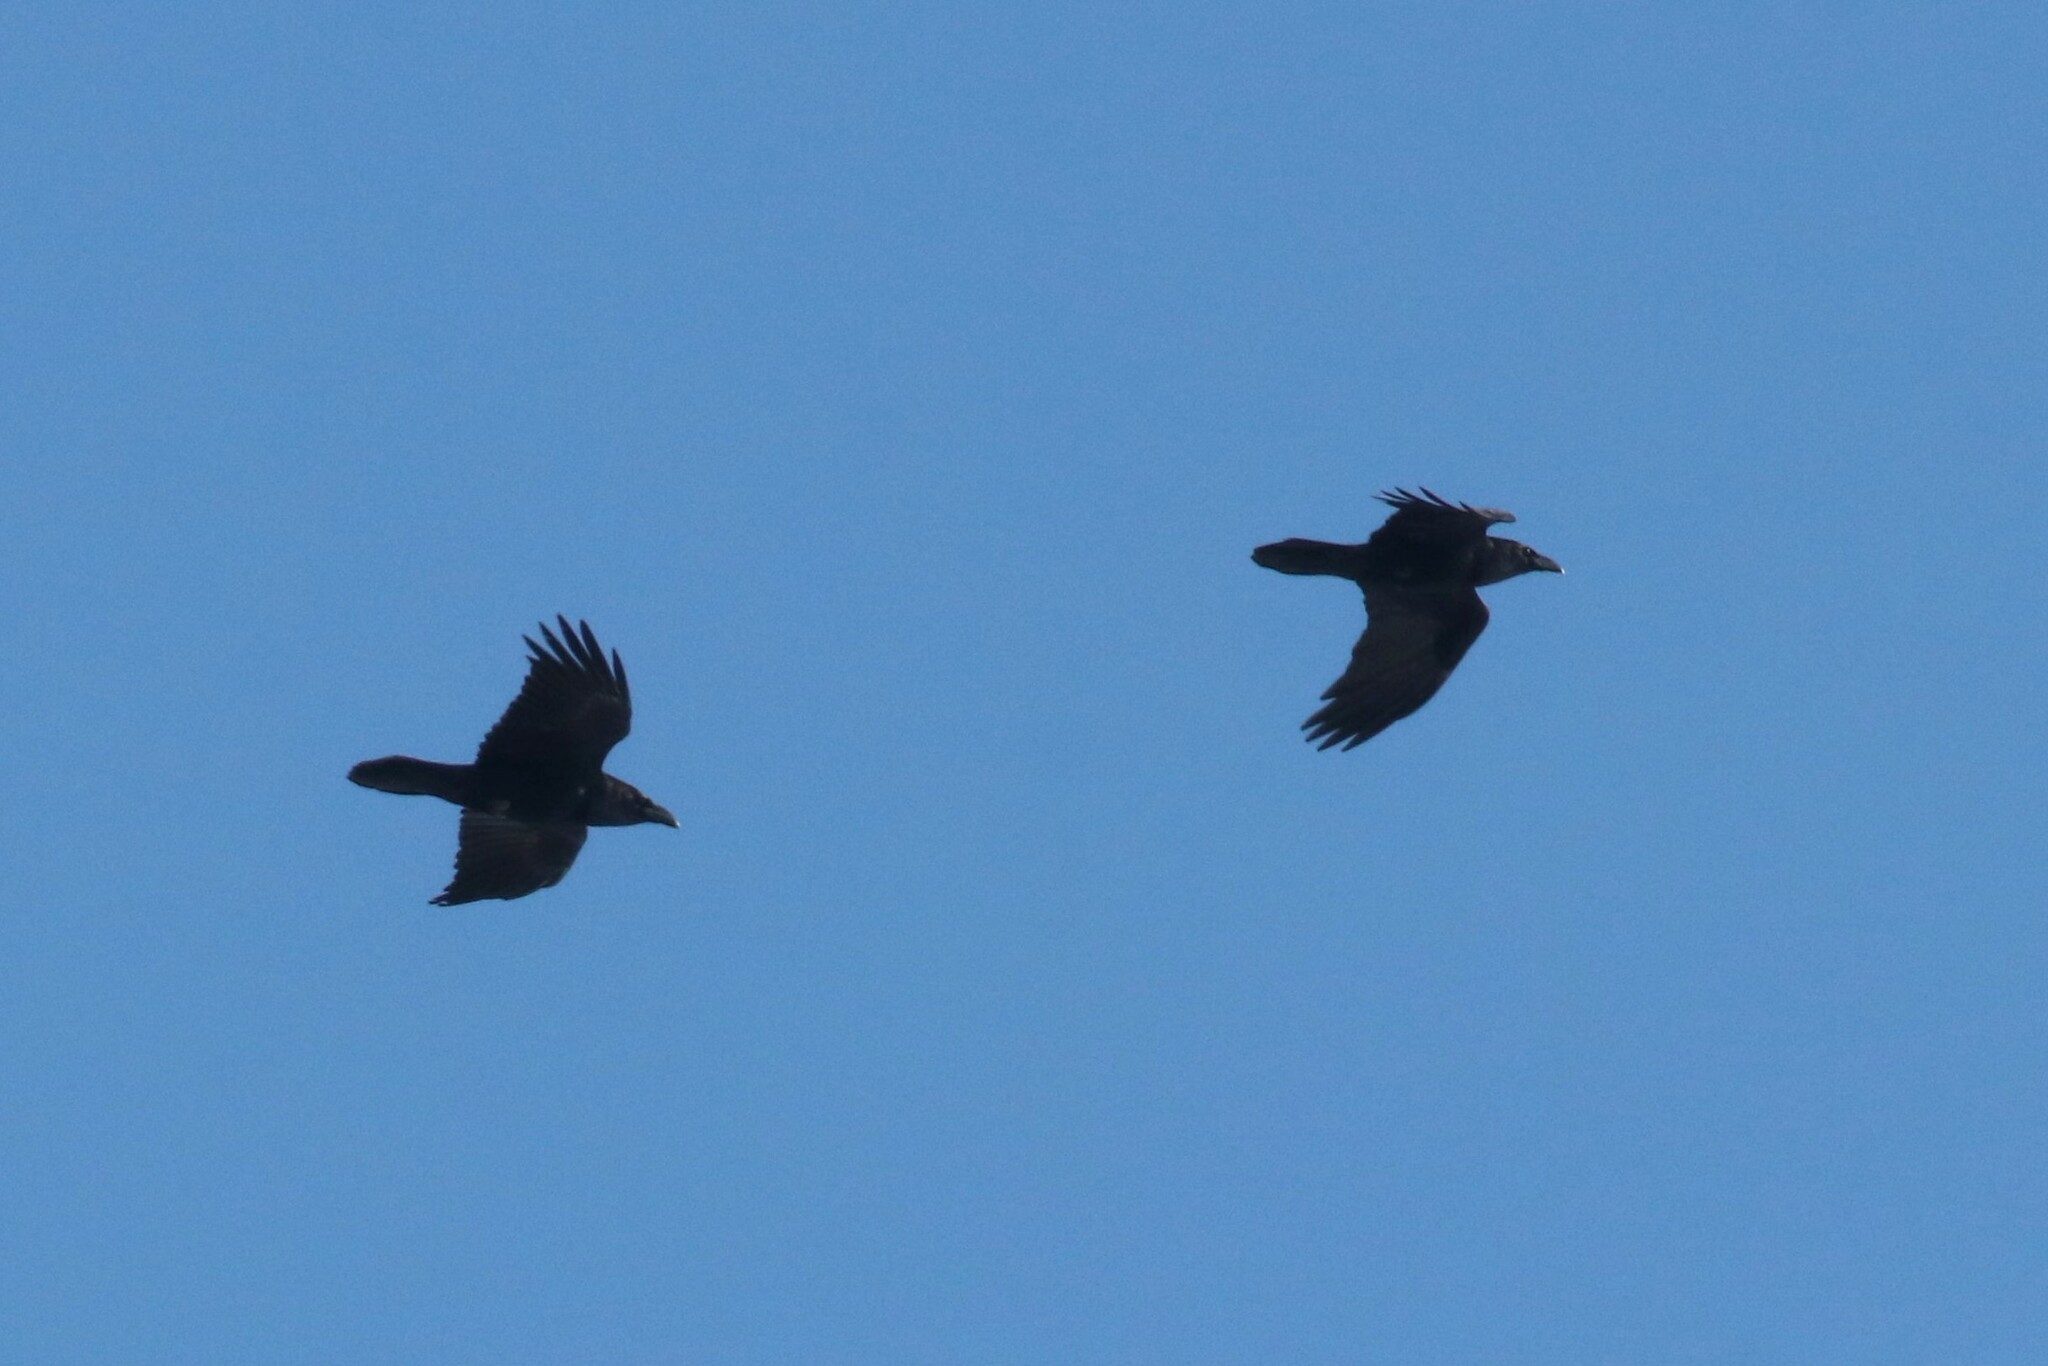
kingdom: Animalia
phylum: Chordata
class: Aves
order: Passeriformes
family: Corvidae
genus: Corvus
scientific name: Corvus corax
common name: Common raven
